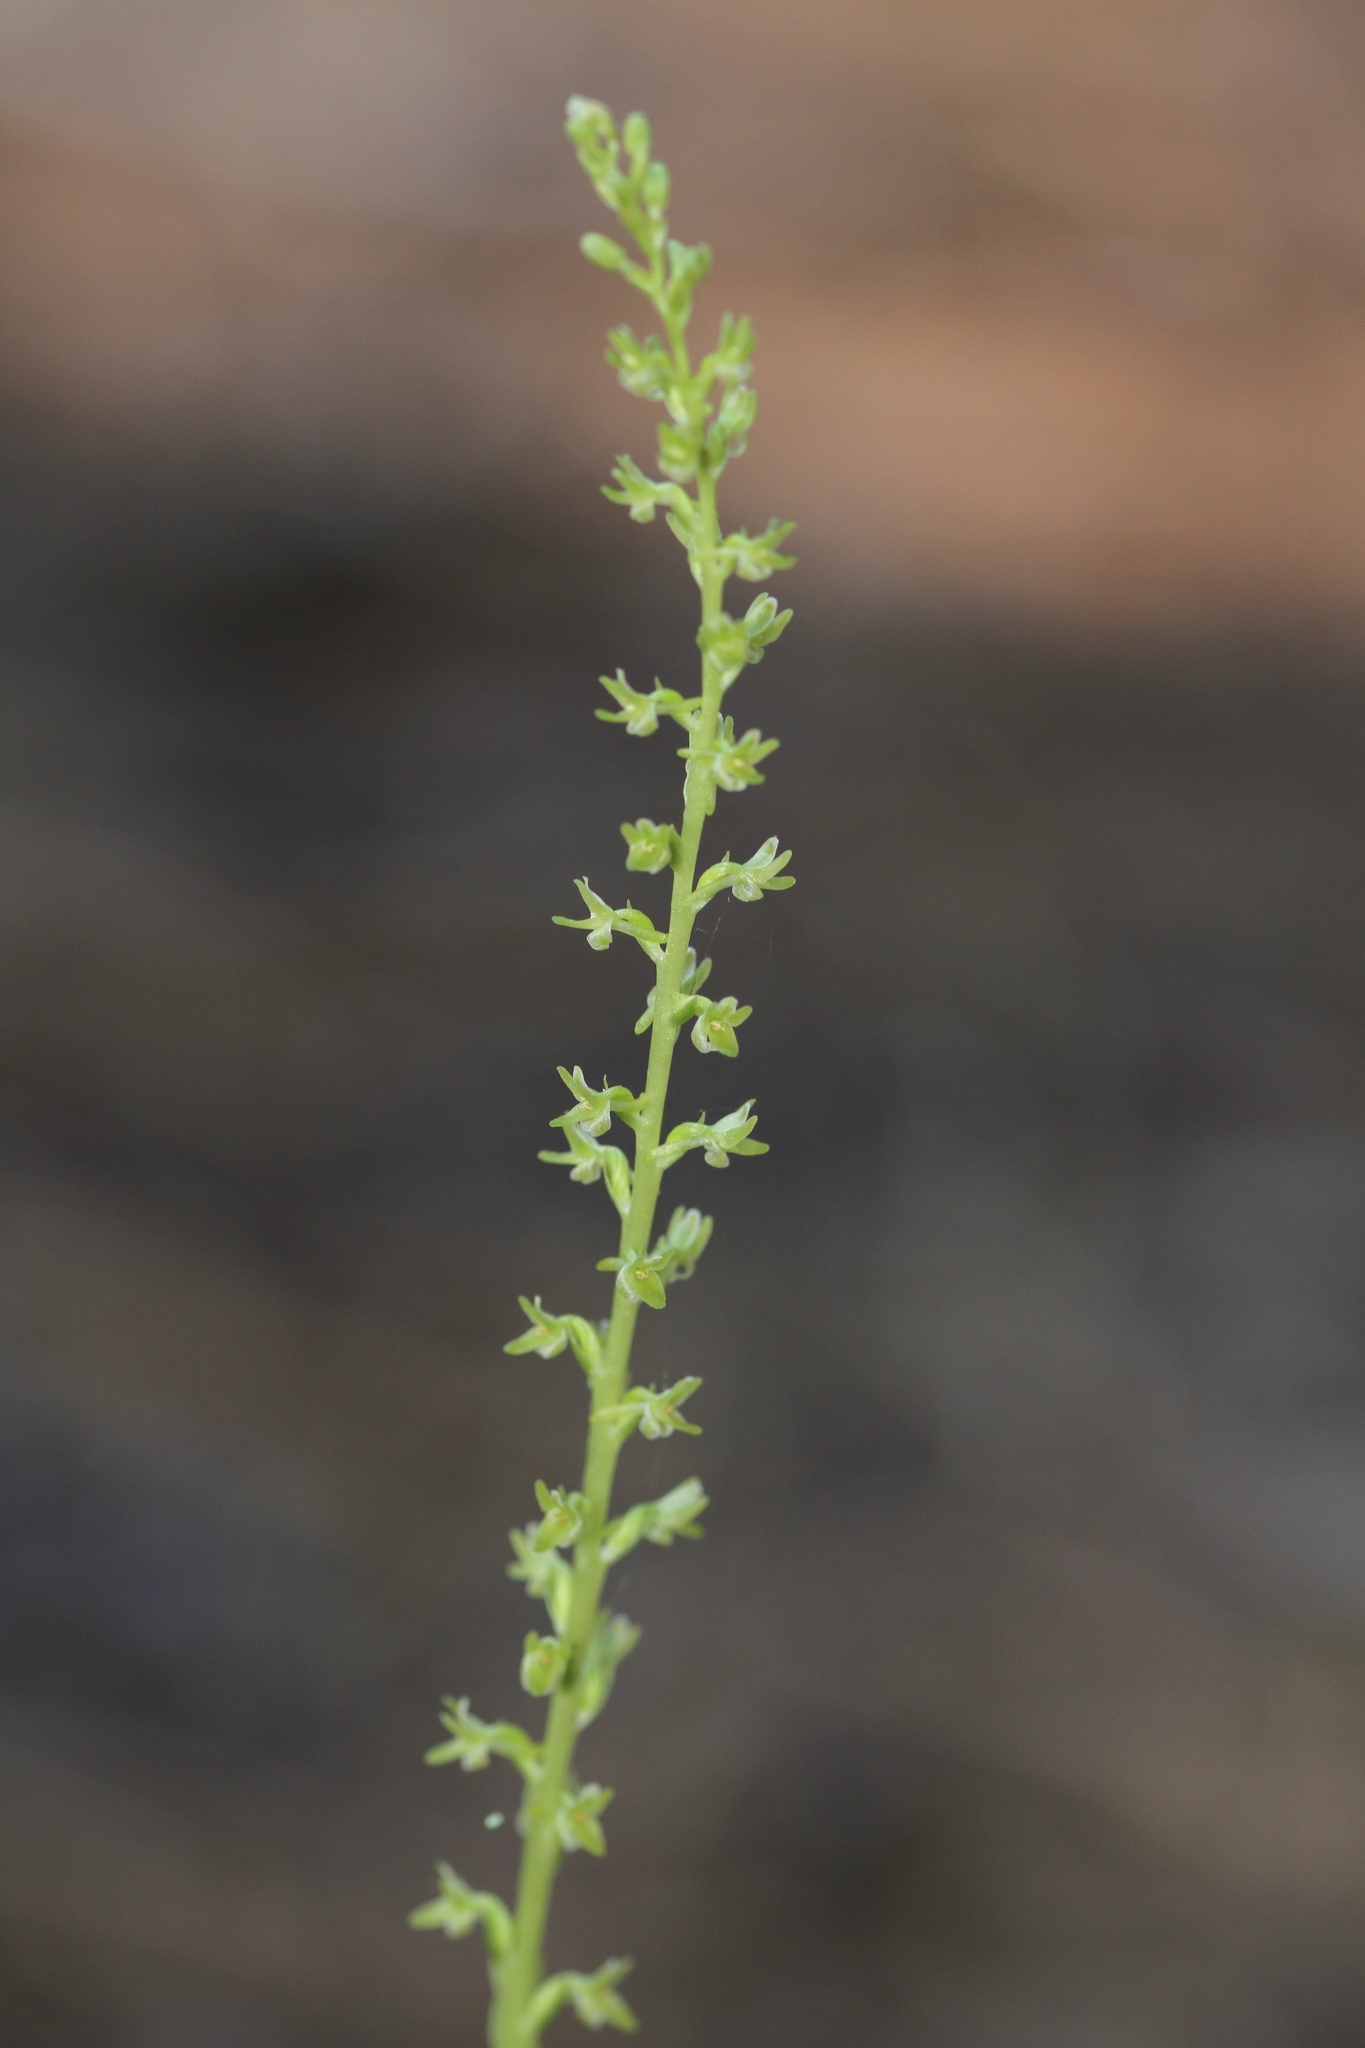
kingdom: Plantae
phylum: Tracheophyta
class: Liliopsida
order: Asparagales
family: Orchidaceae
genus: Platanthera
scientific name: Platanthera unalascensis
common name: Alaska bog orchid
